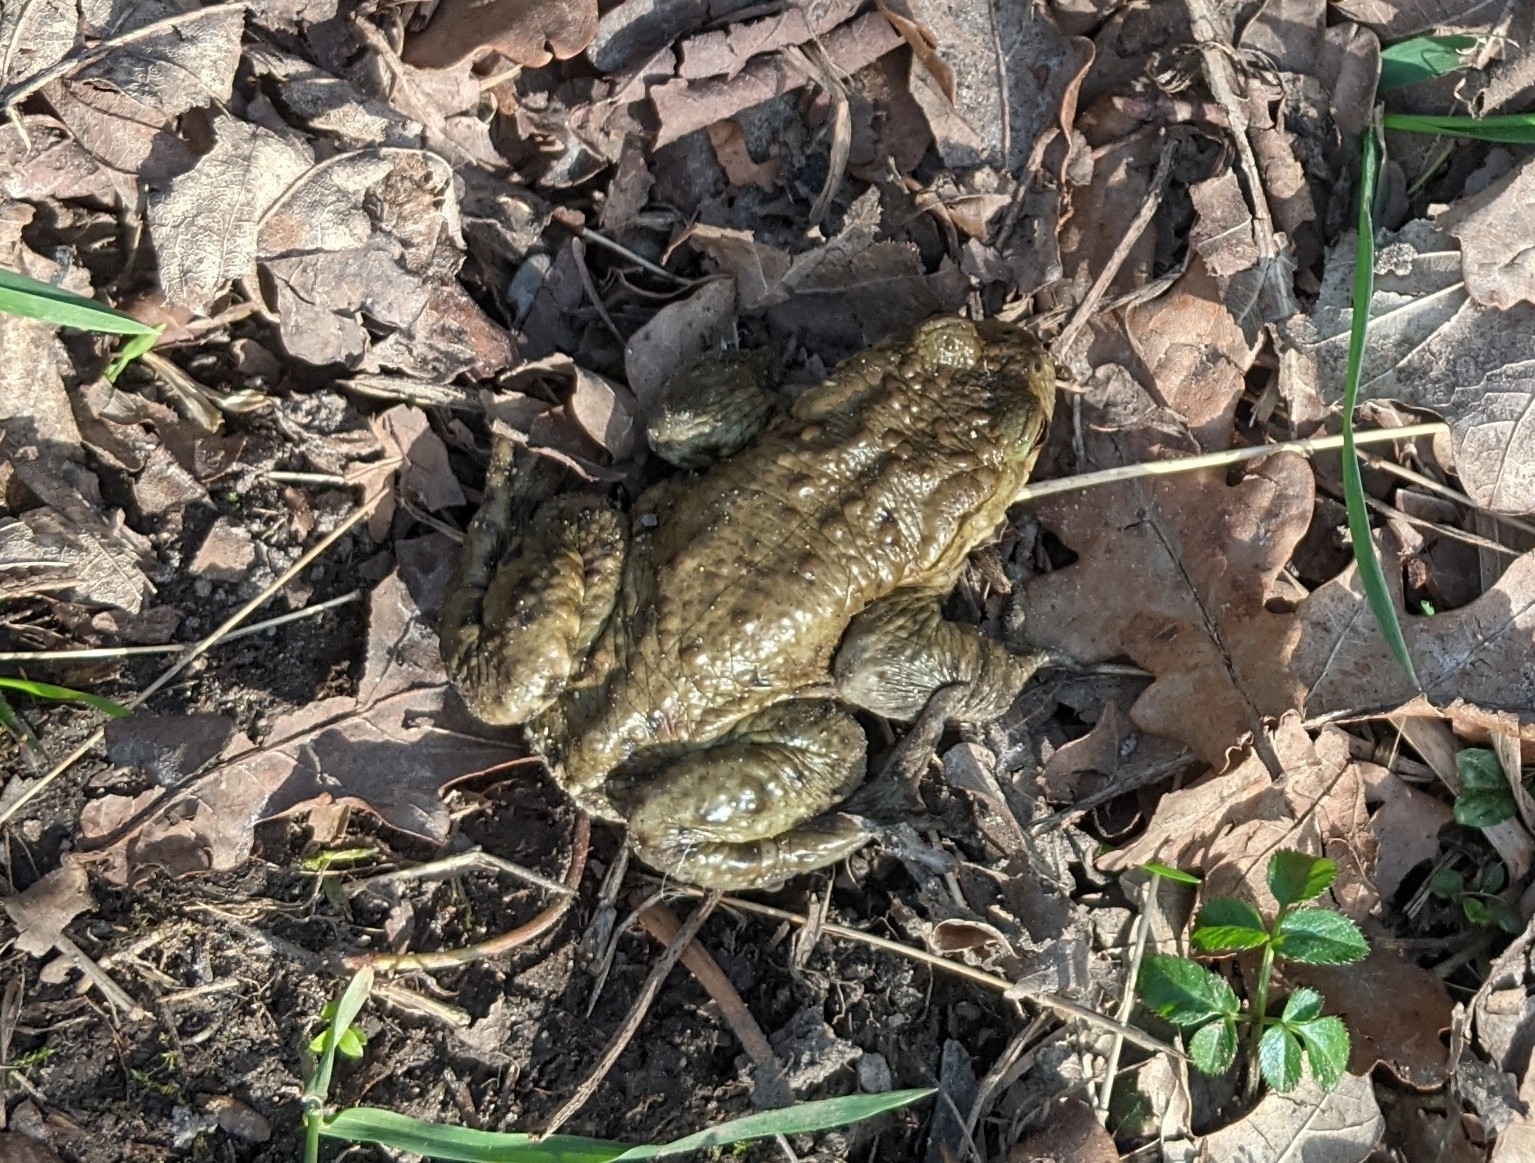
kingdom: Animalia
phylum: Chordata
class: Amphibia
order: Anura
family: Bufonidae
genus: Bufo
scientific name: Bufo bufo
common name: Common toad
